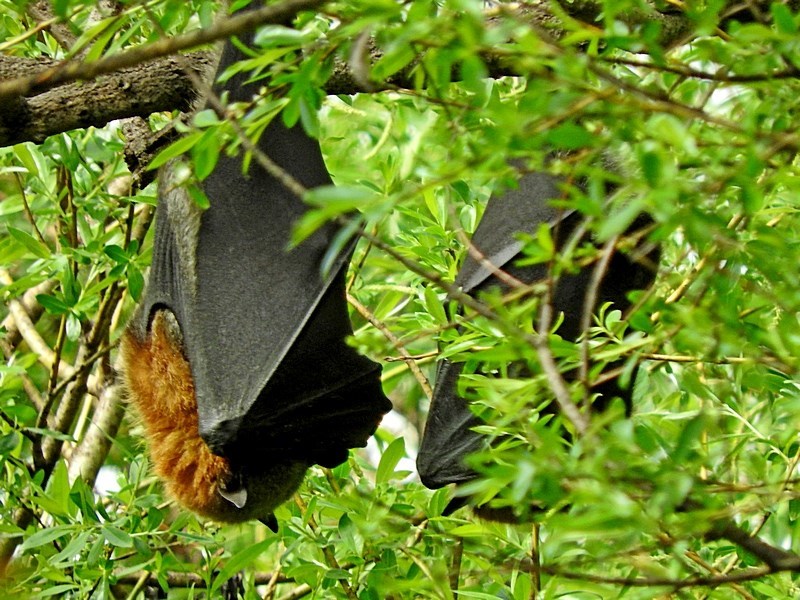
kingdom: Animalia
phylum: Chordata
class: Mammalia
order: Chiroptera
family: Pteropodidae
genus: Pteropus
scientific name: Pteropus poliocephalus
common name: Gray-headed flying fox
